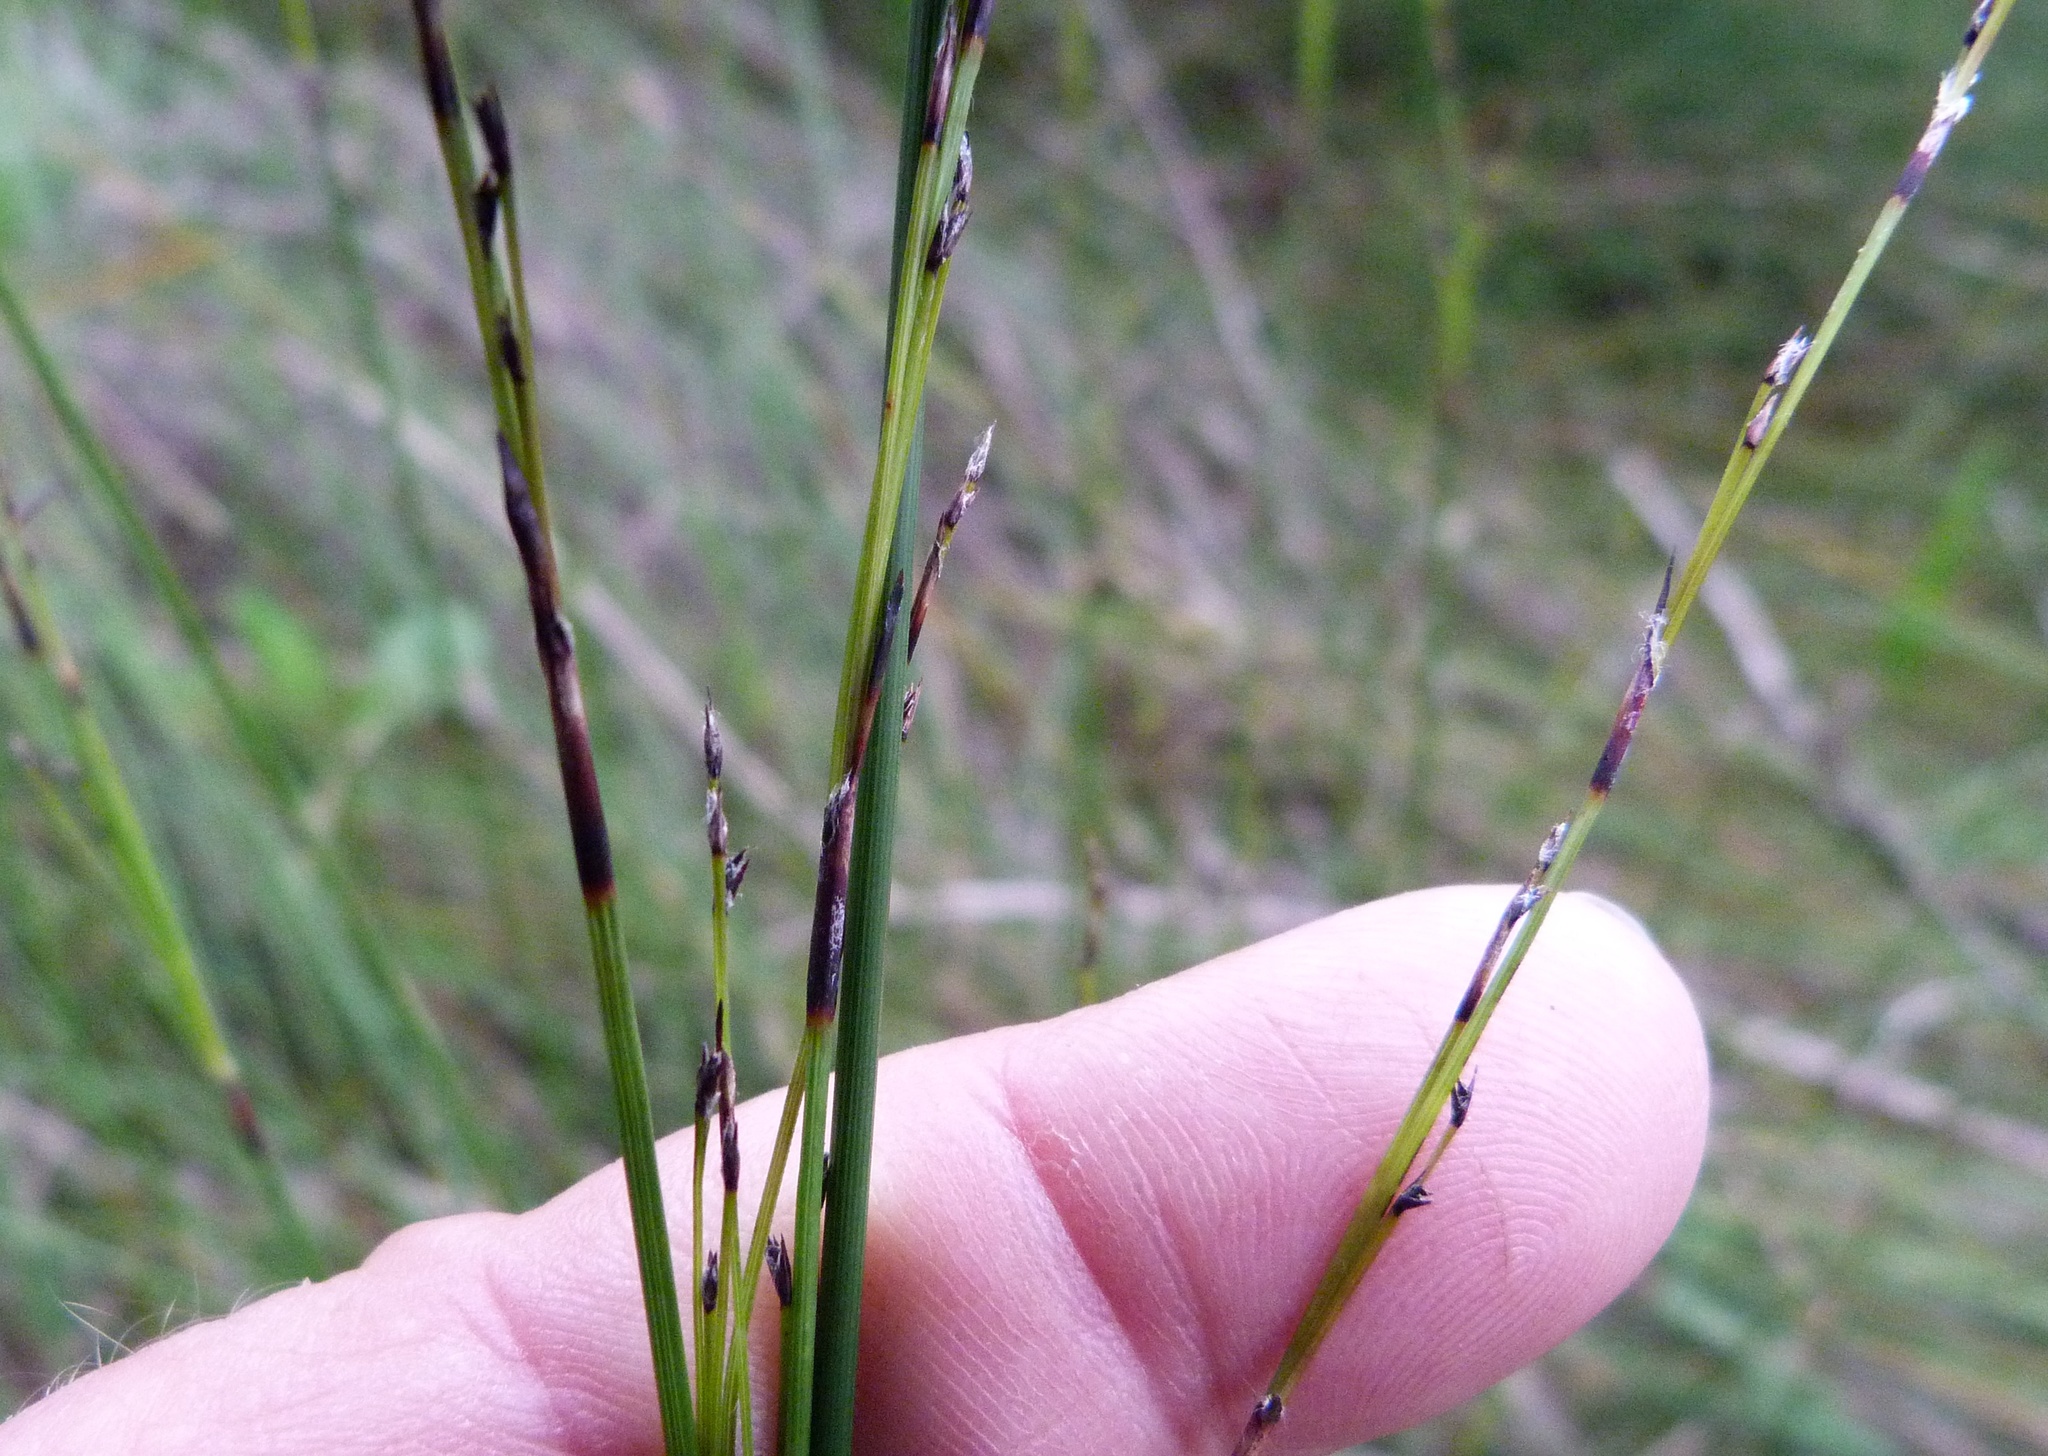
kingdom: Plantae
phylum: Tracheophyta
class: Liliopsida
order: Poales
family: Cyperaceae
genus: Machaerina
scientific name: Machaerina tenax
